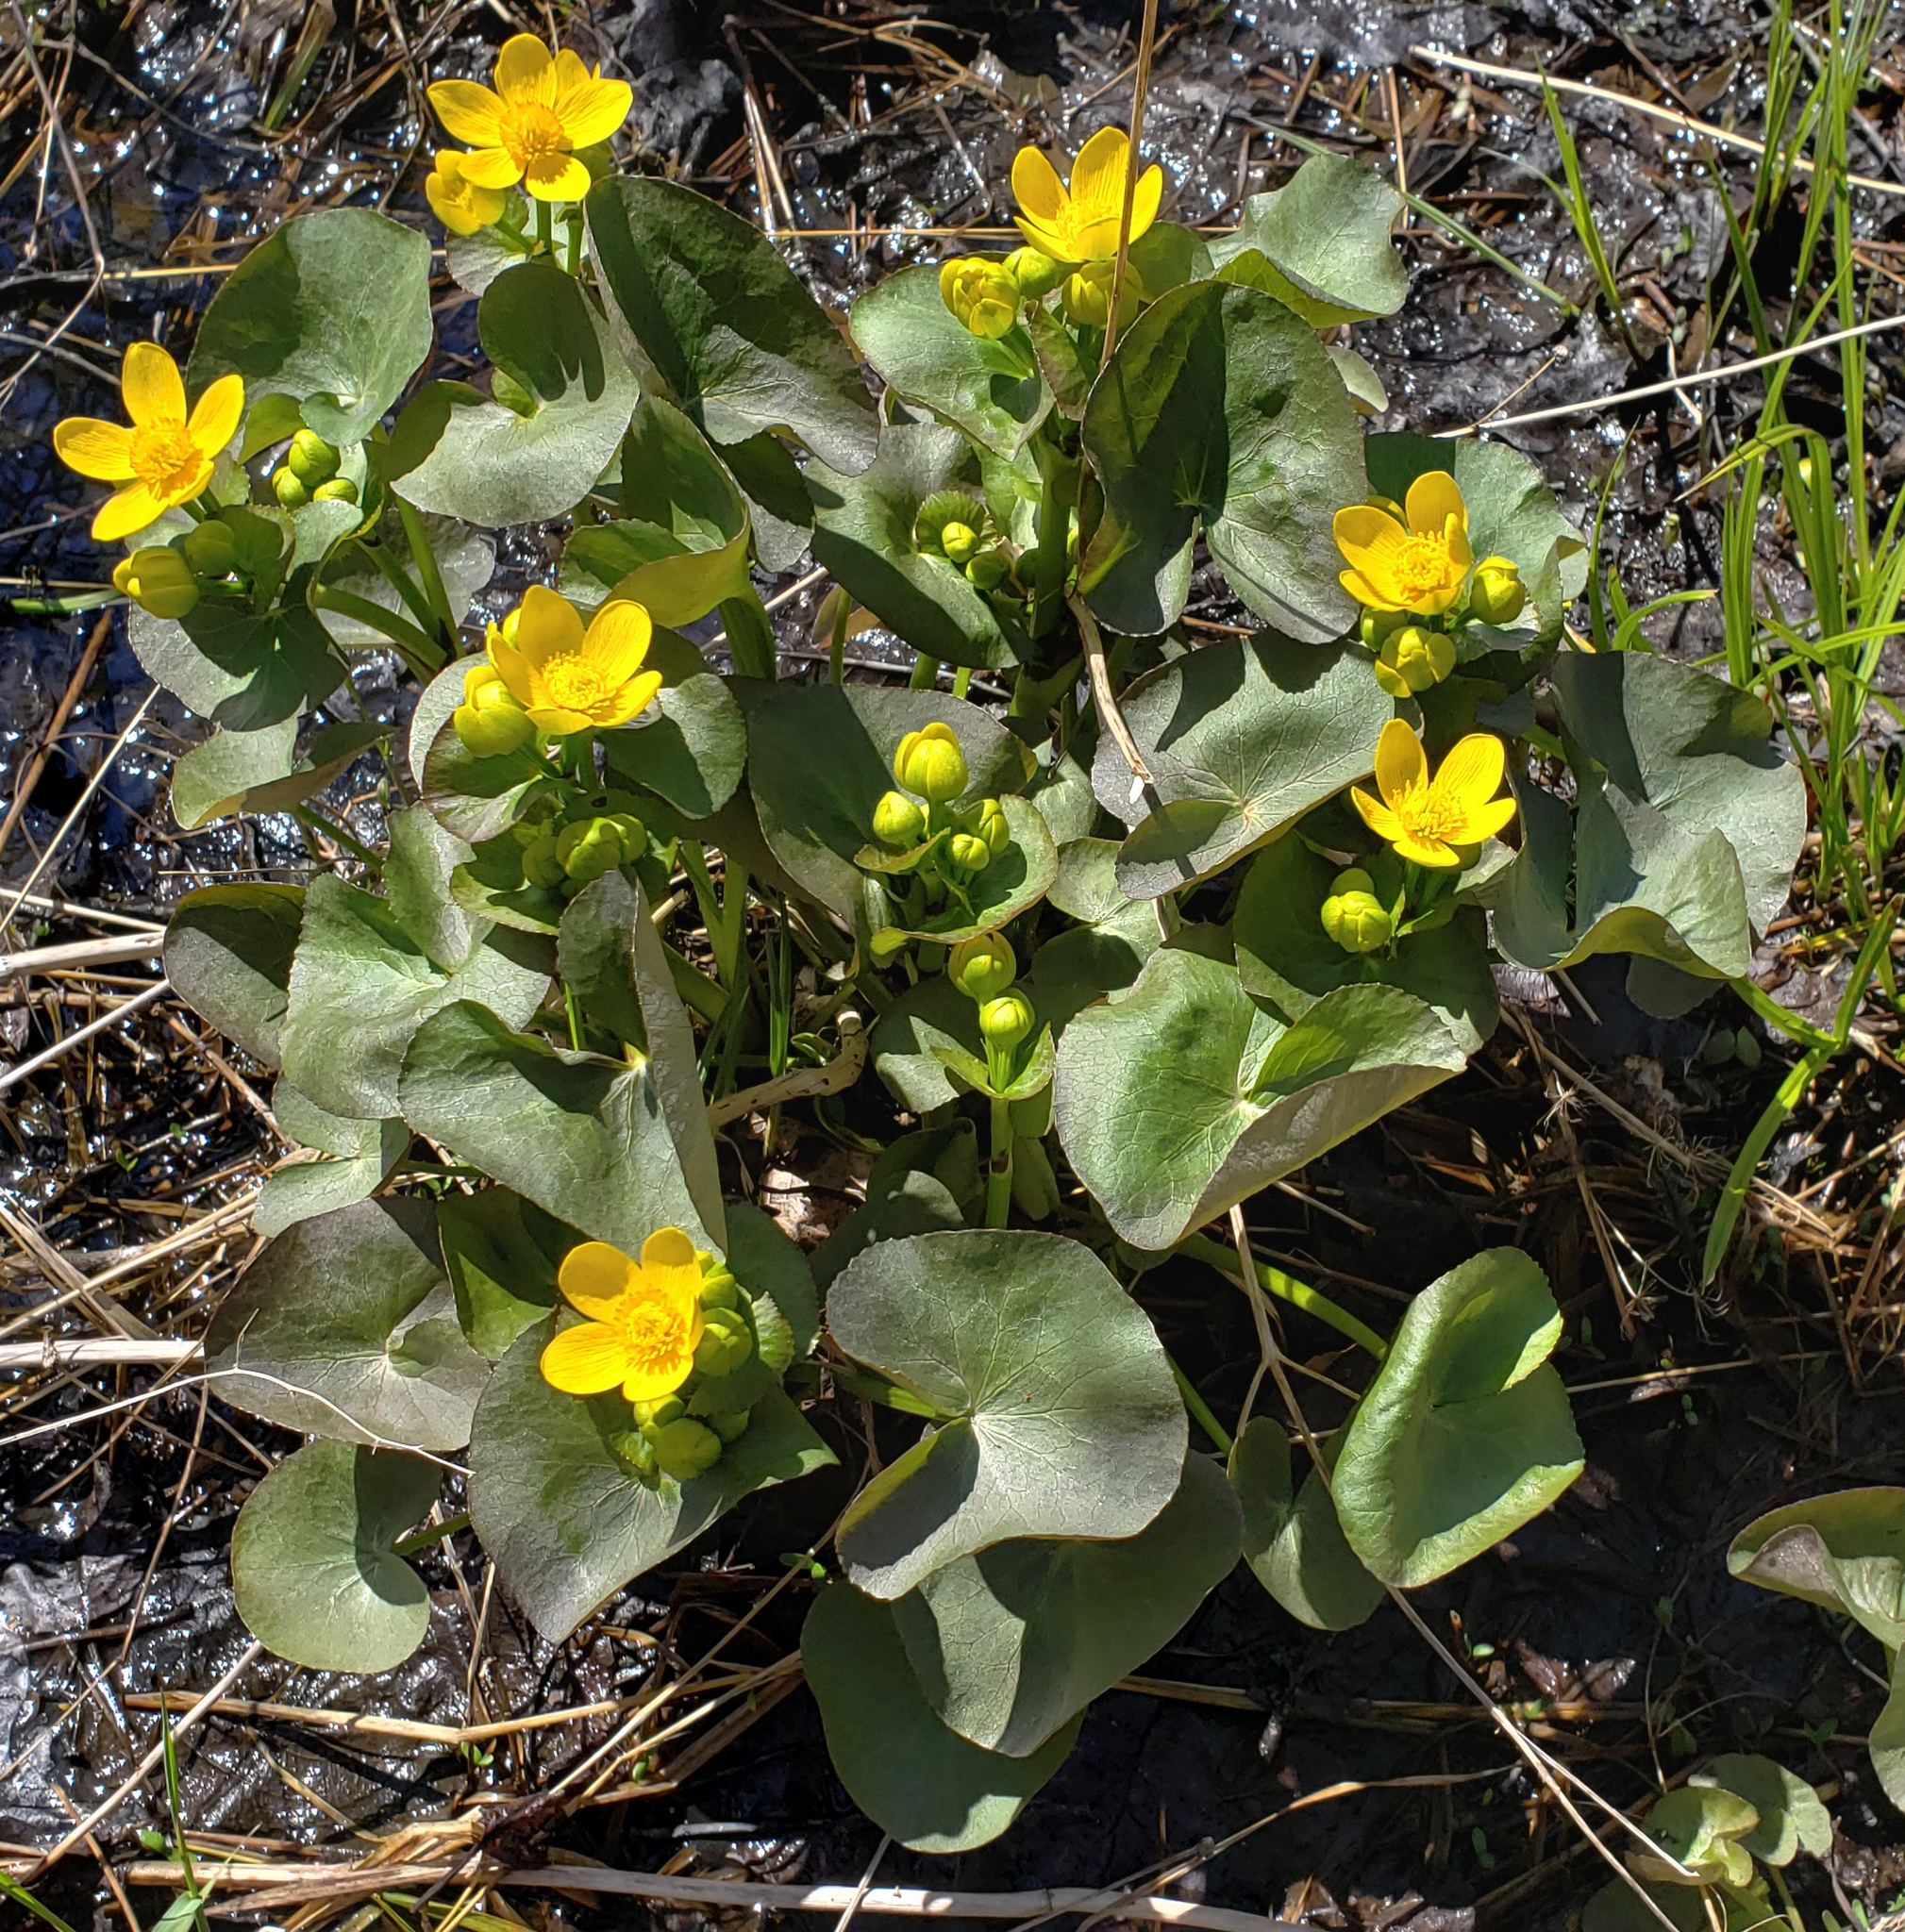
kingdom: Plantae
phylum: Tracheophyta
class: Magnoliopsida
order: Ranunculales
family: Ranunculaceae
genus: Caltha
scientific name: Caltha palustris
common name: Marsh marigold
